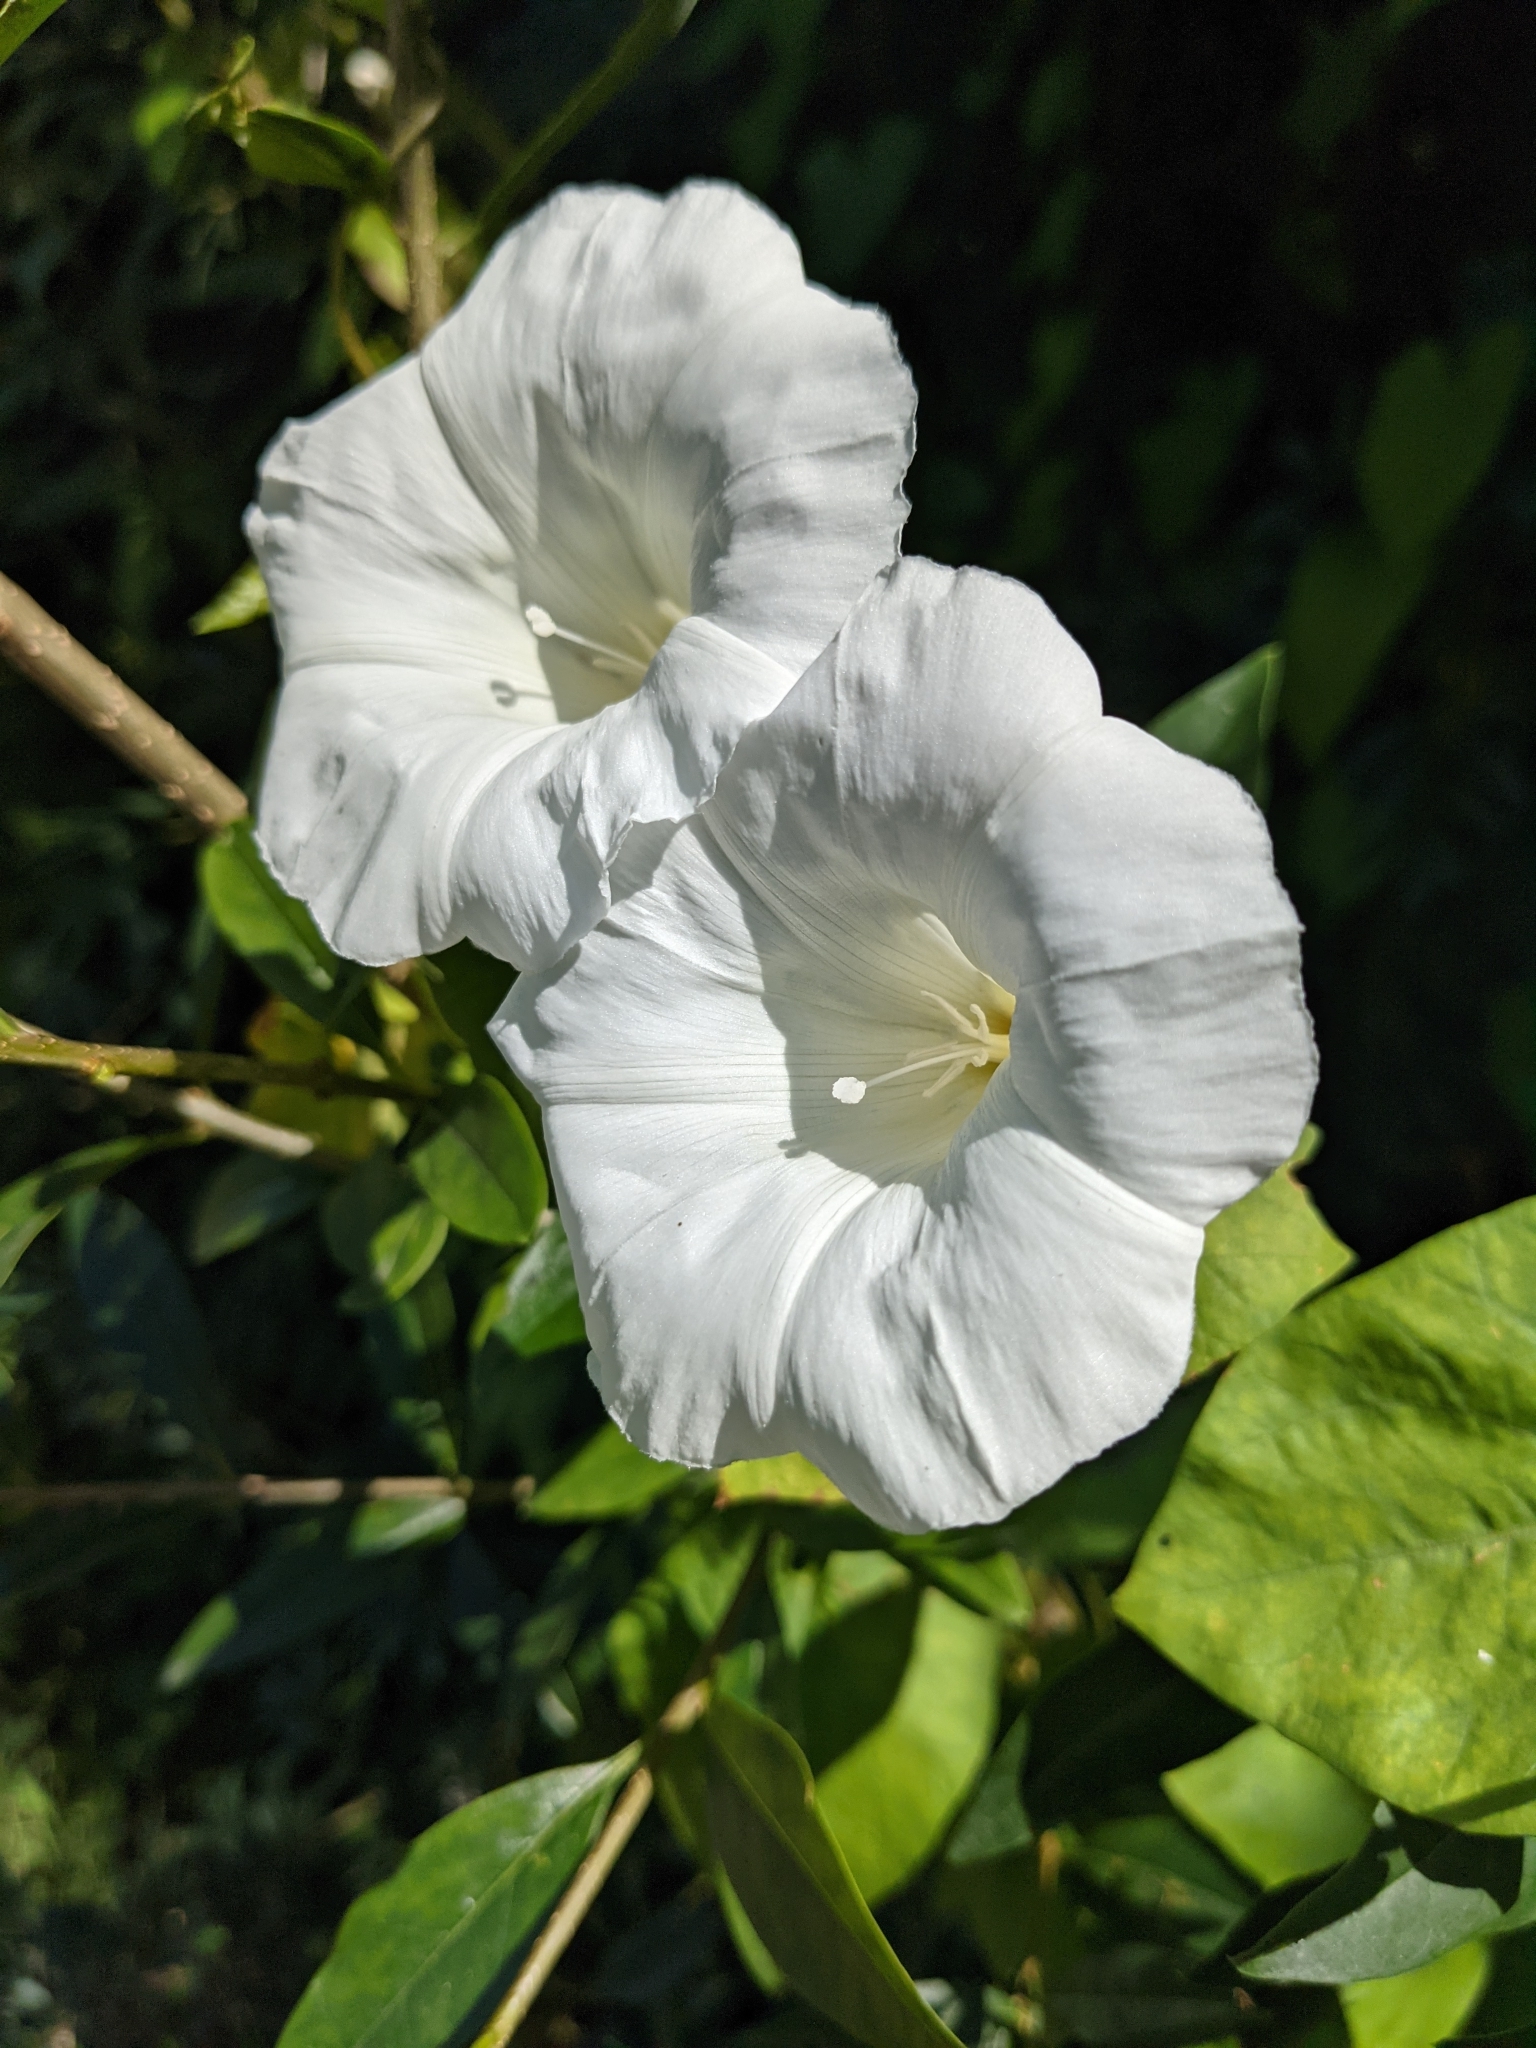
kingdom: Plantae
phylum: Tracheophyta
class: Magnoliopsida
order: Solanales
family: Convolvulaceae
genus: Calystegia
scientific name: Calystegia sepium
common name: Hedge bindweed
